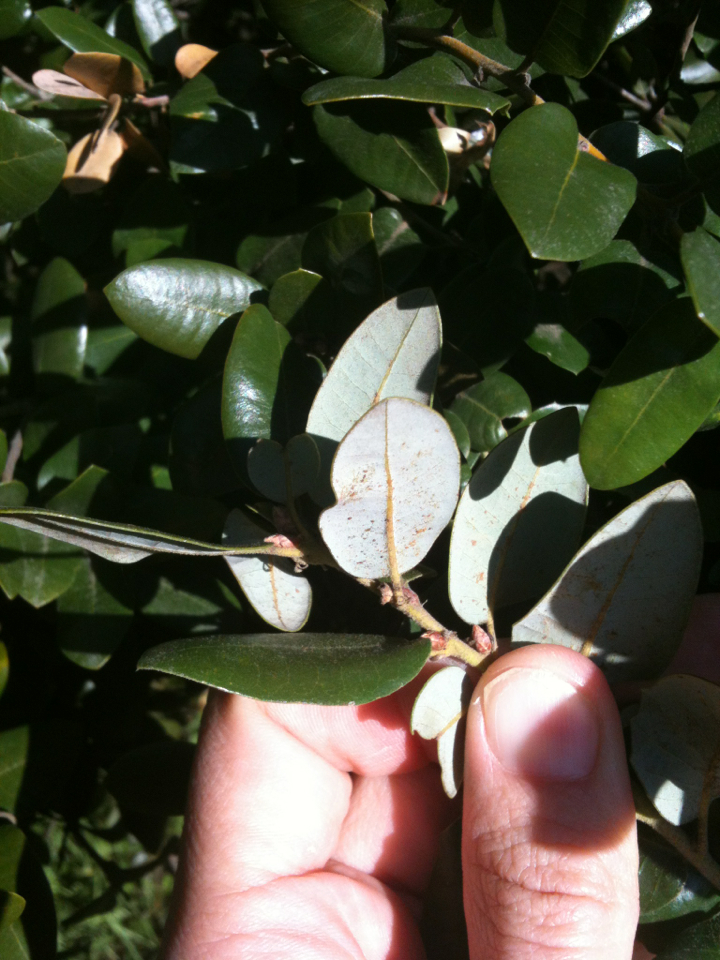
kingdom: Plantae
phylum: Tracheophyta
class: Magnoliopsida
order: Fagales
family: Fagaceae
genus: Quercus
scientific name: Quercus chrysolepis
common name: Canyon live oak
